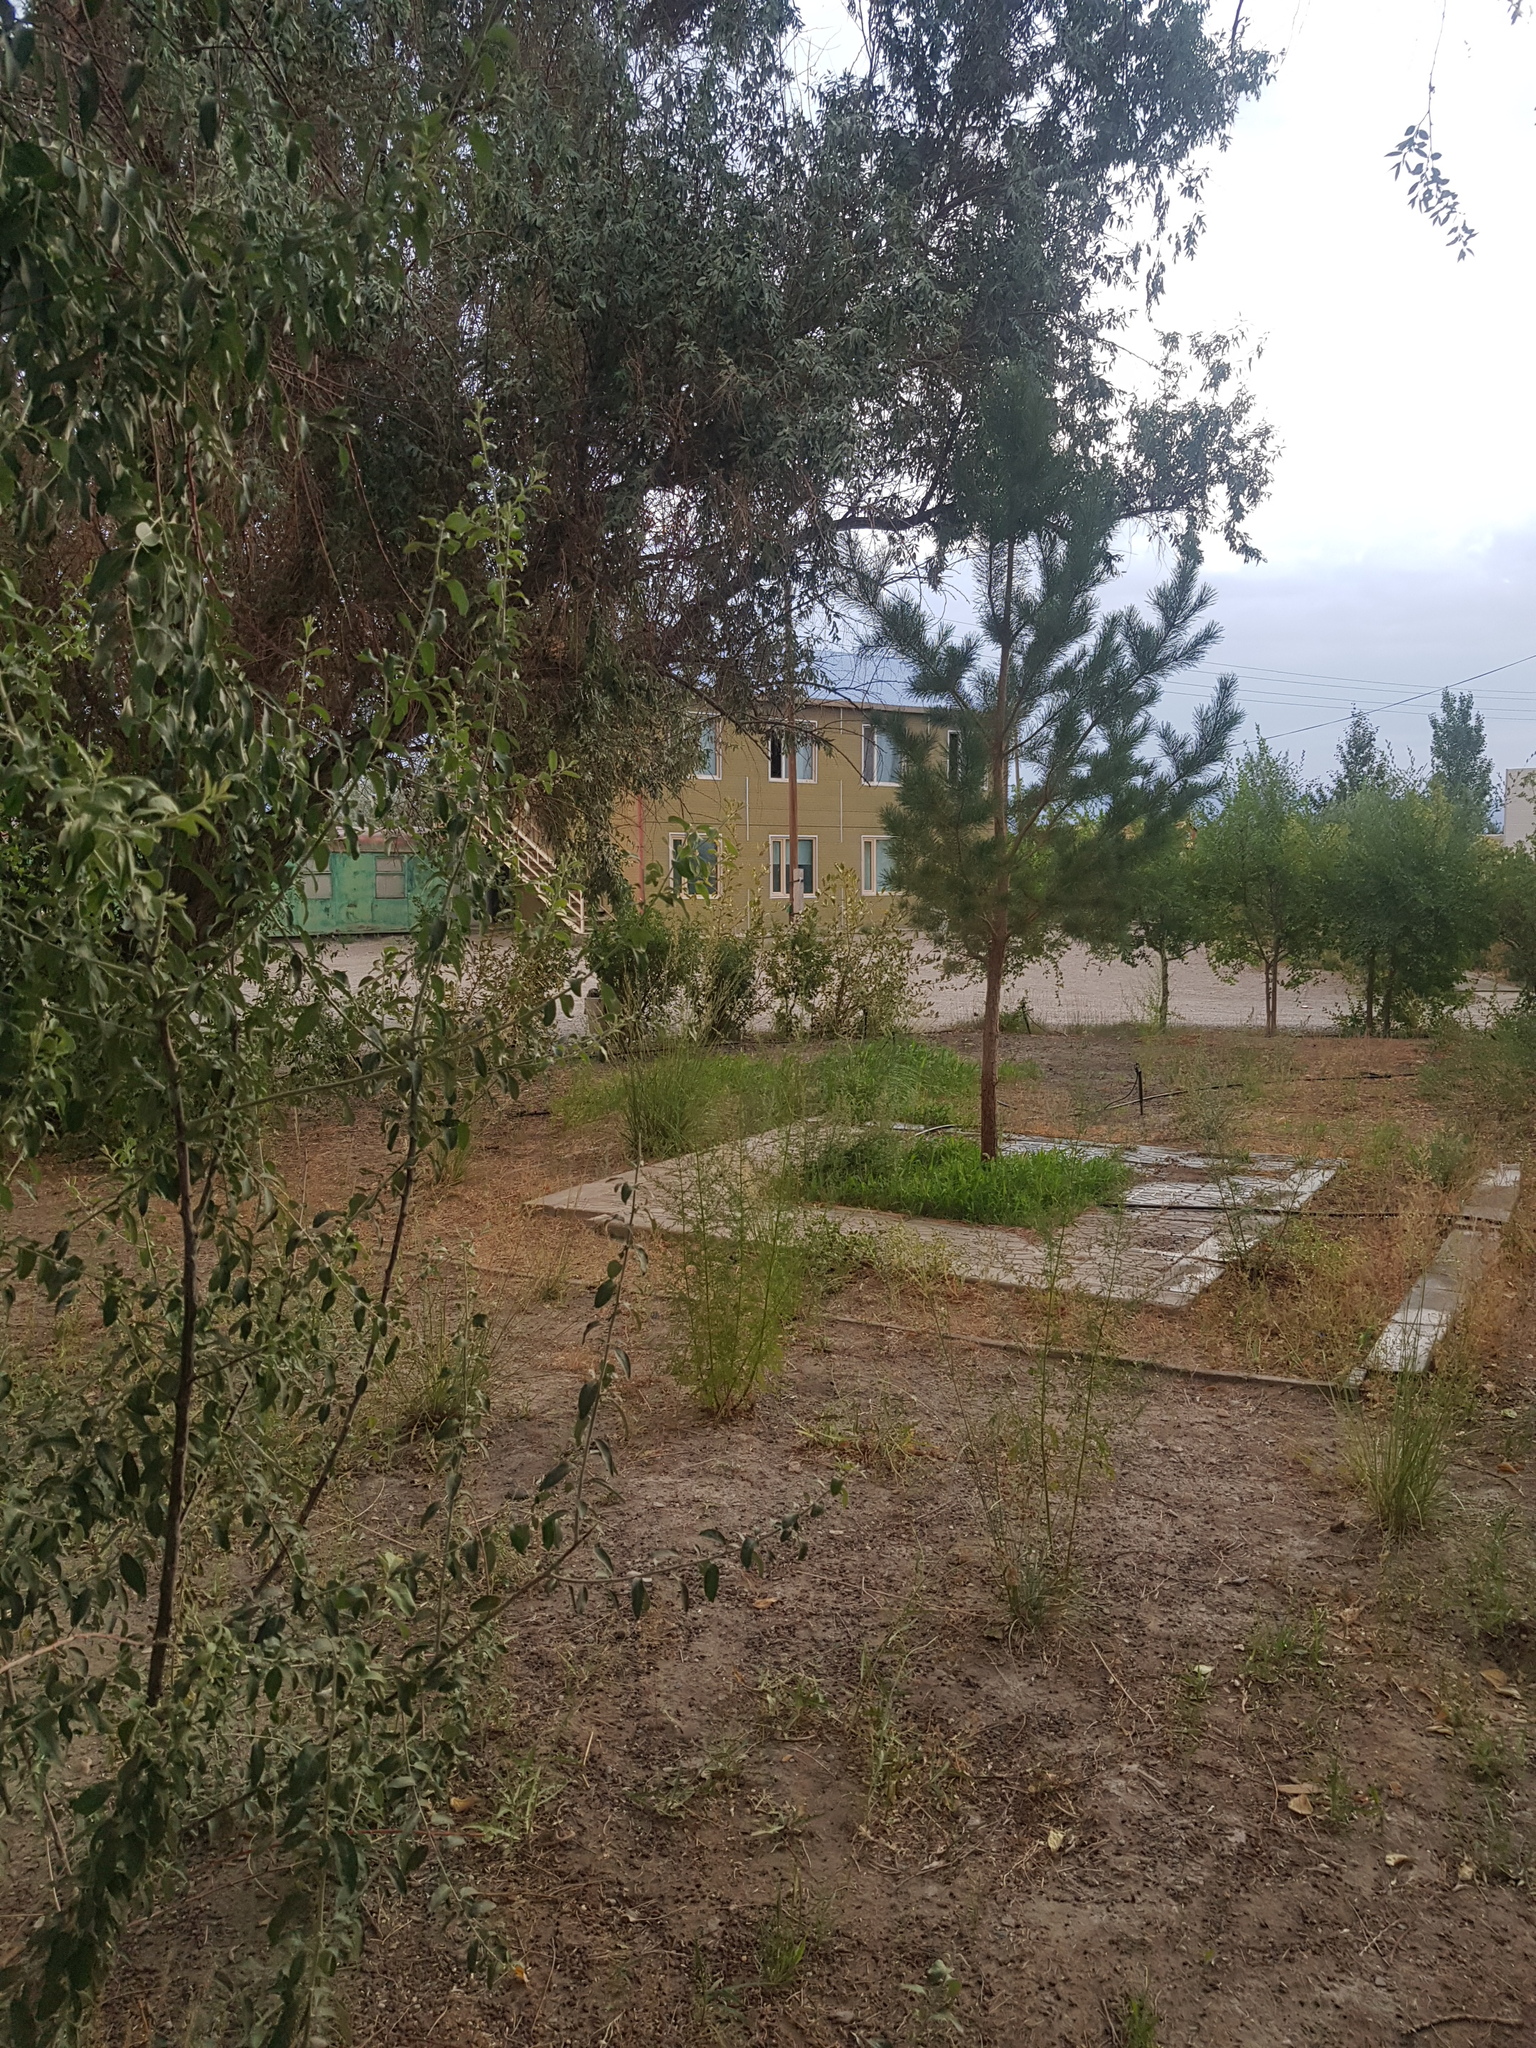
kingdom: Plantae
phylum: Tracheophyta
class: Pinopsida
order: Pinales
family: Pinaceae
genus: Pinus
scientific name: Pinus sylvestris
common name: Scots pine
